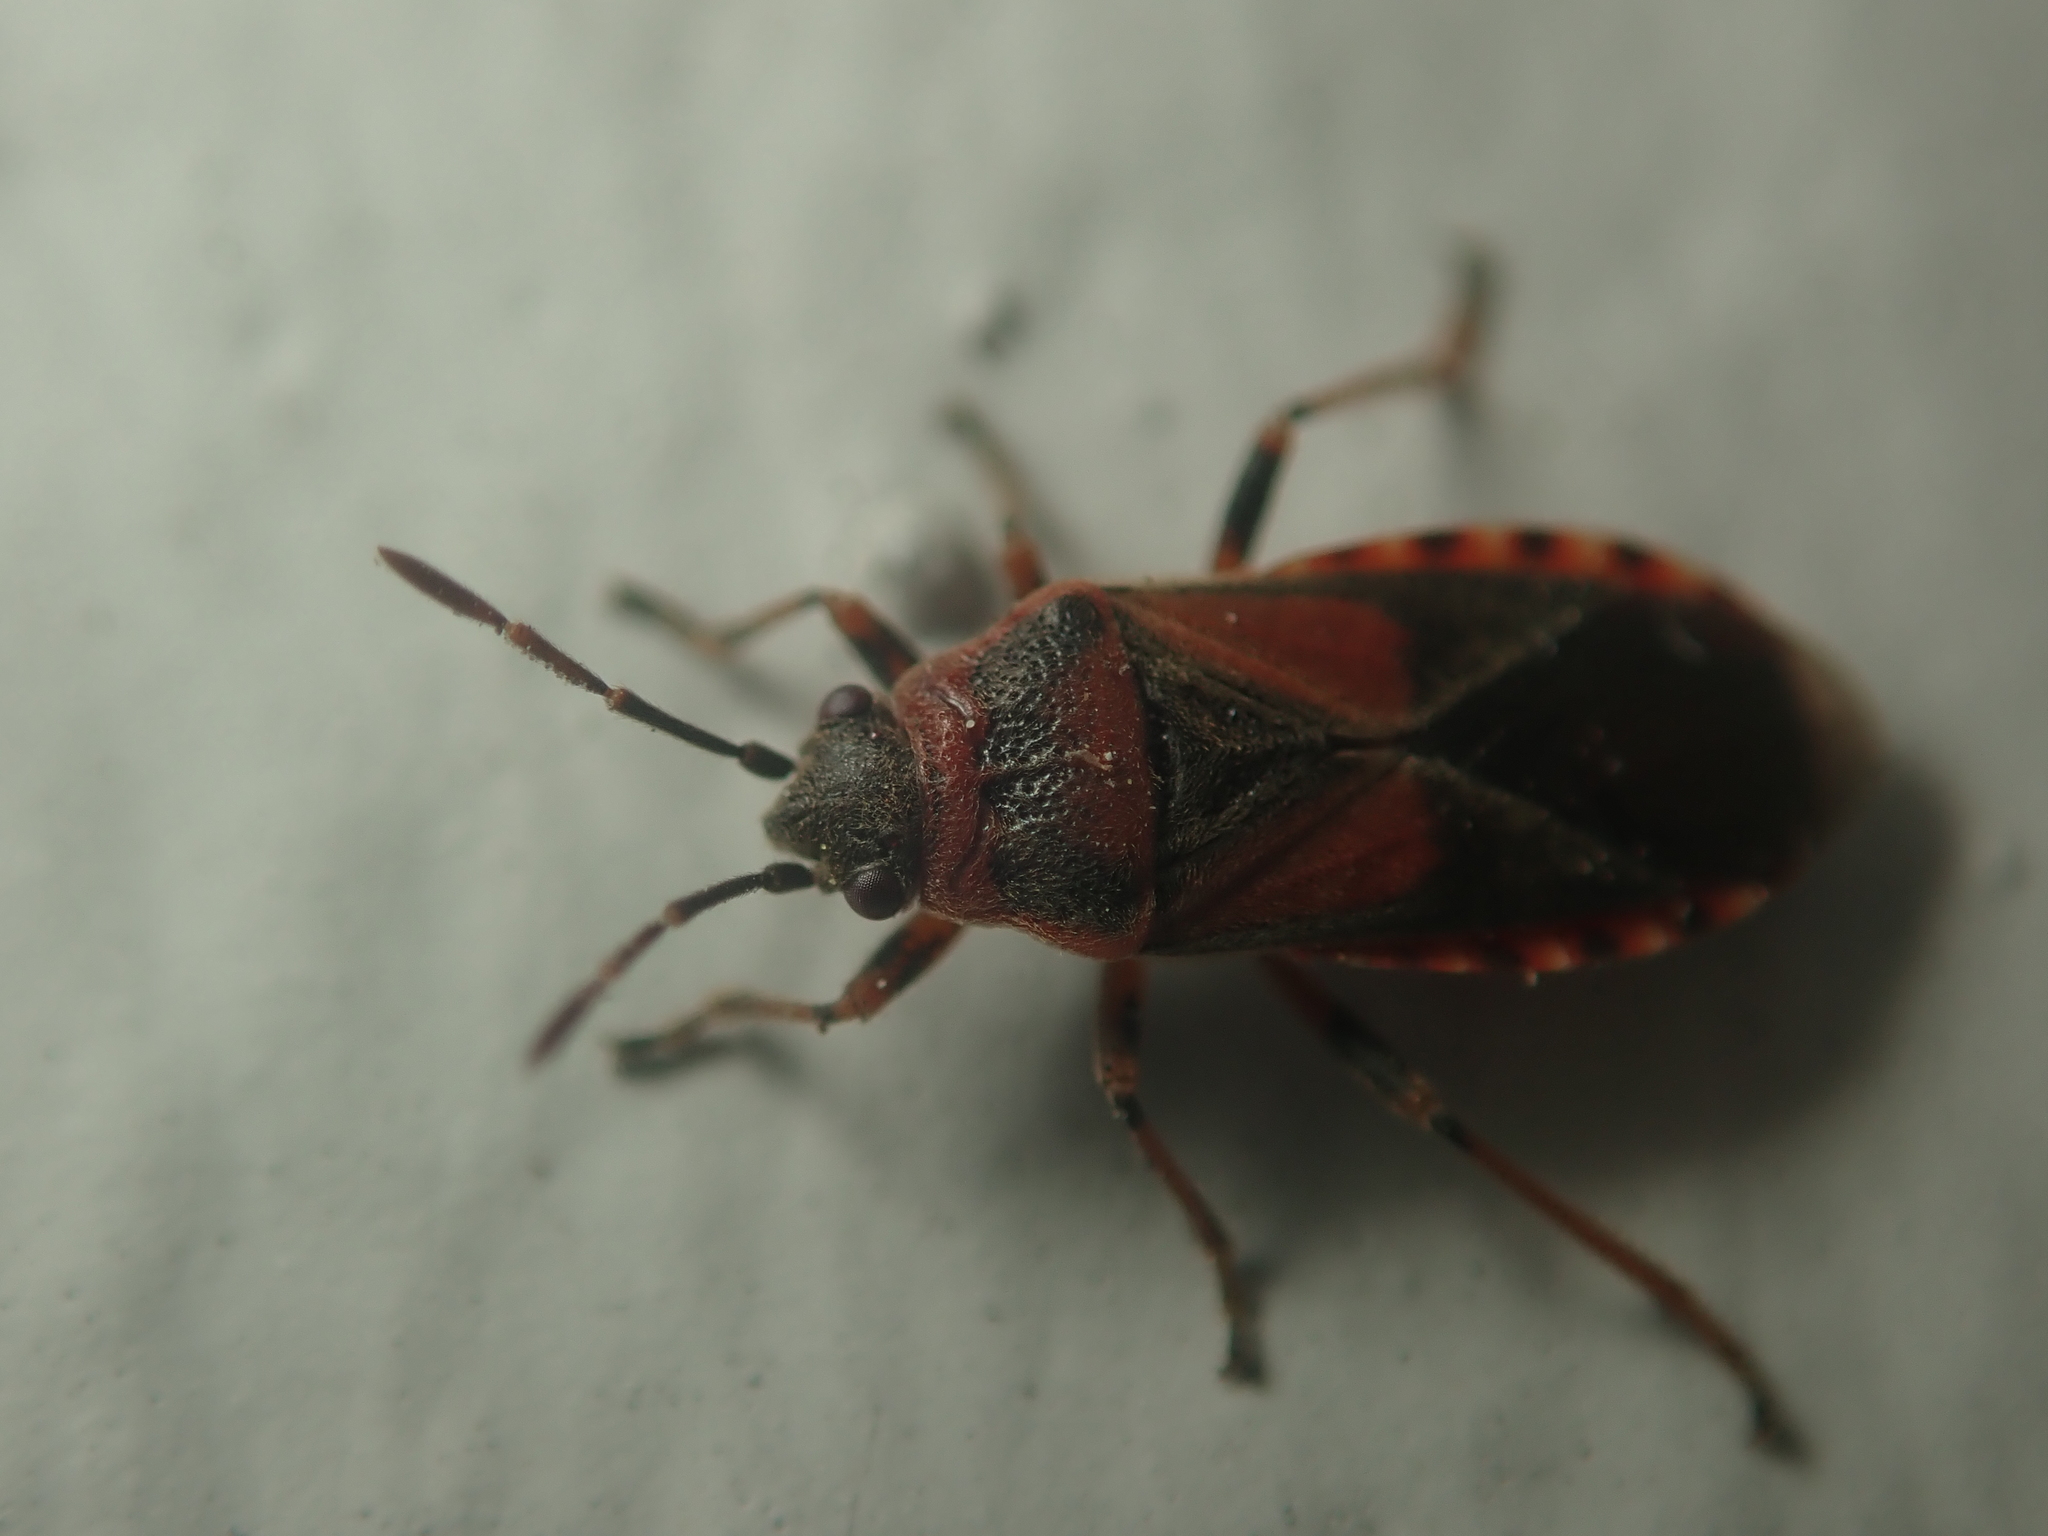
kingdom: Animalia
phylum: Arthropoda
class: Insecta
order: Hemiptera
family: Lygaeidae
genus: Arocatus
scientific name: Arocatus melanocephalus
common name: Lygaeid bug
